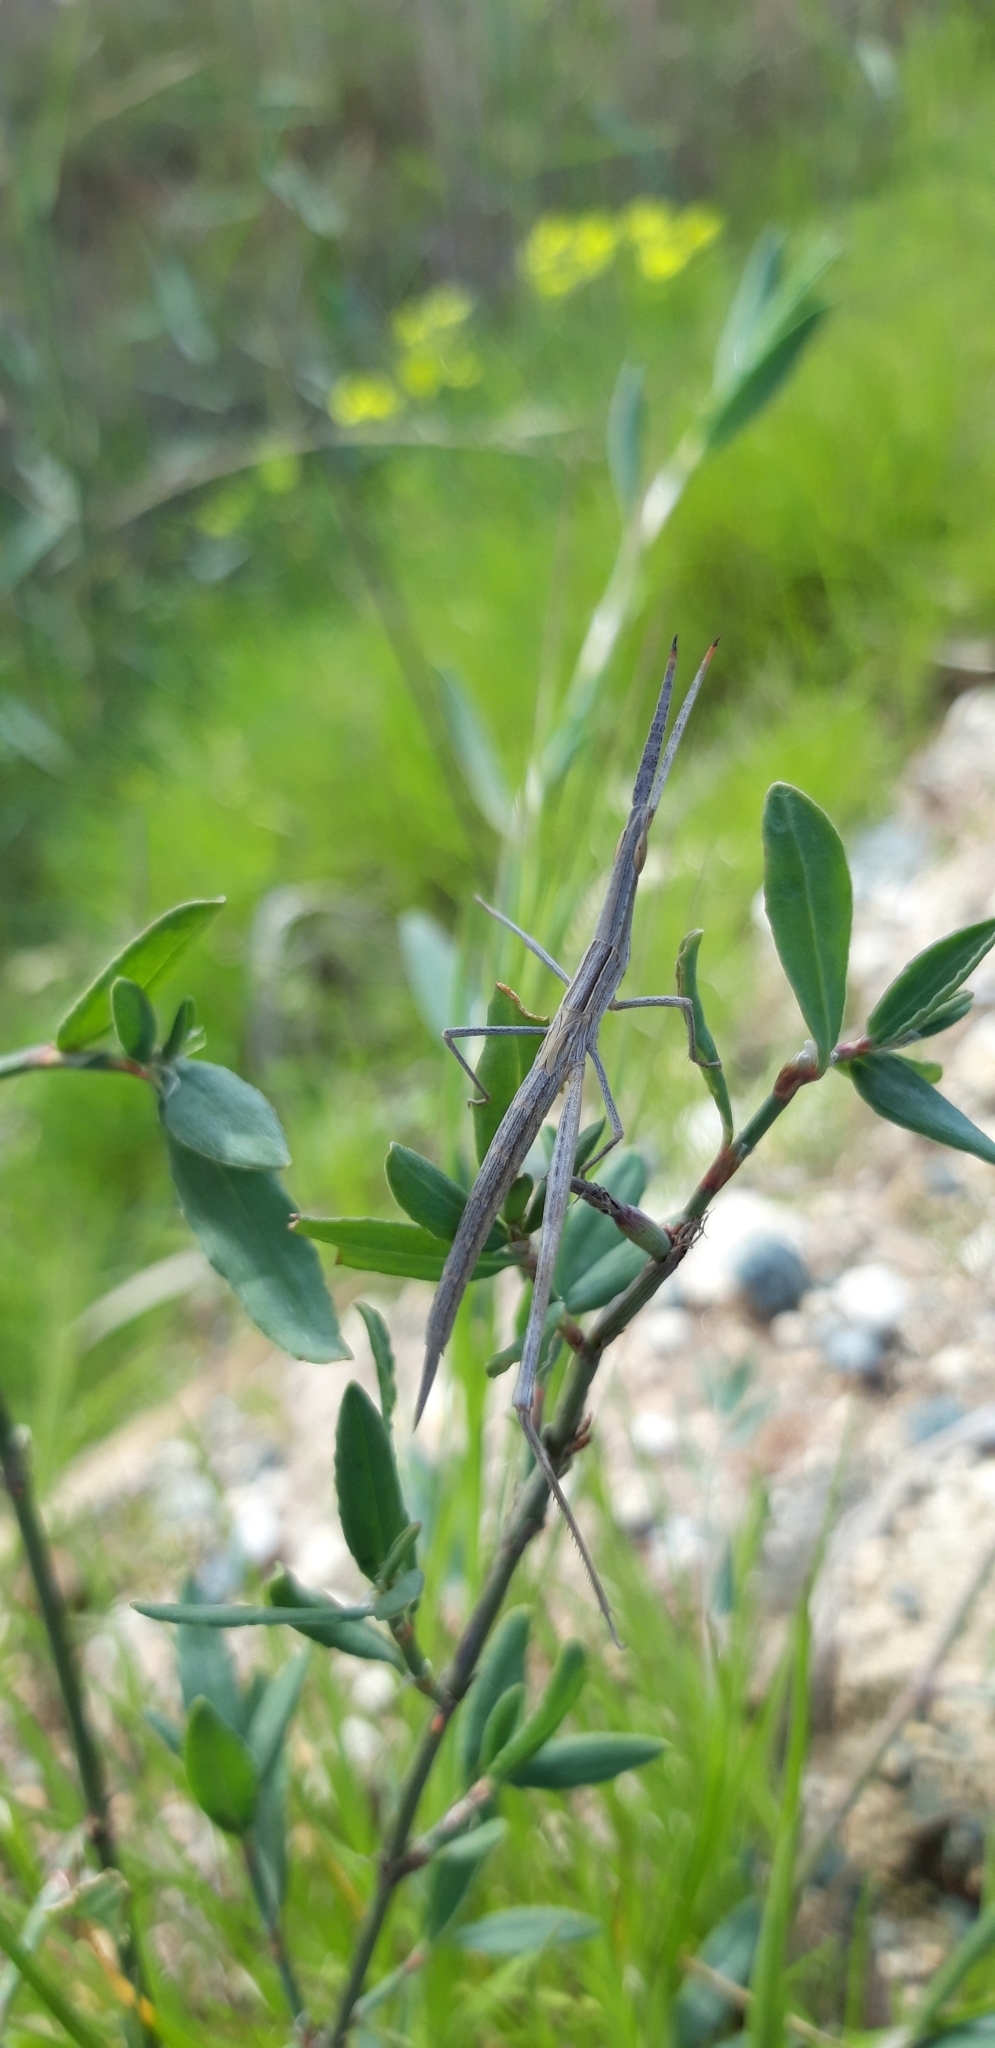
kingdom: Animalia
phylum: Arthropoda
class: Insecta
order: Orthoptera
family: Acrididae
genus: Acrida
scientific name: Acrida ungarica
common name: Common cone-headed grasshopper
